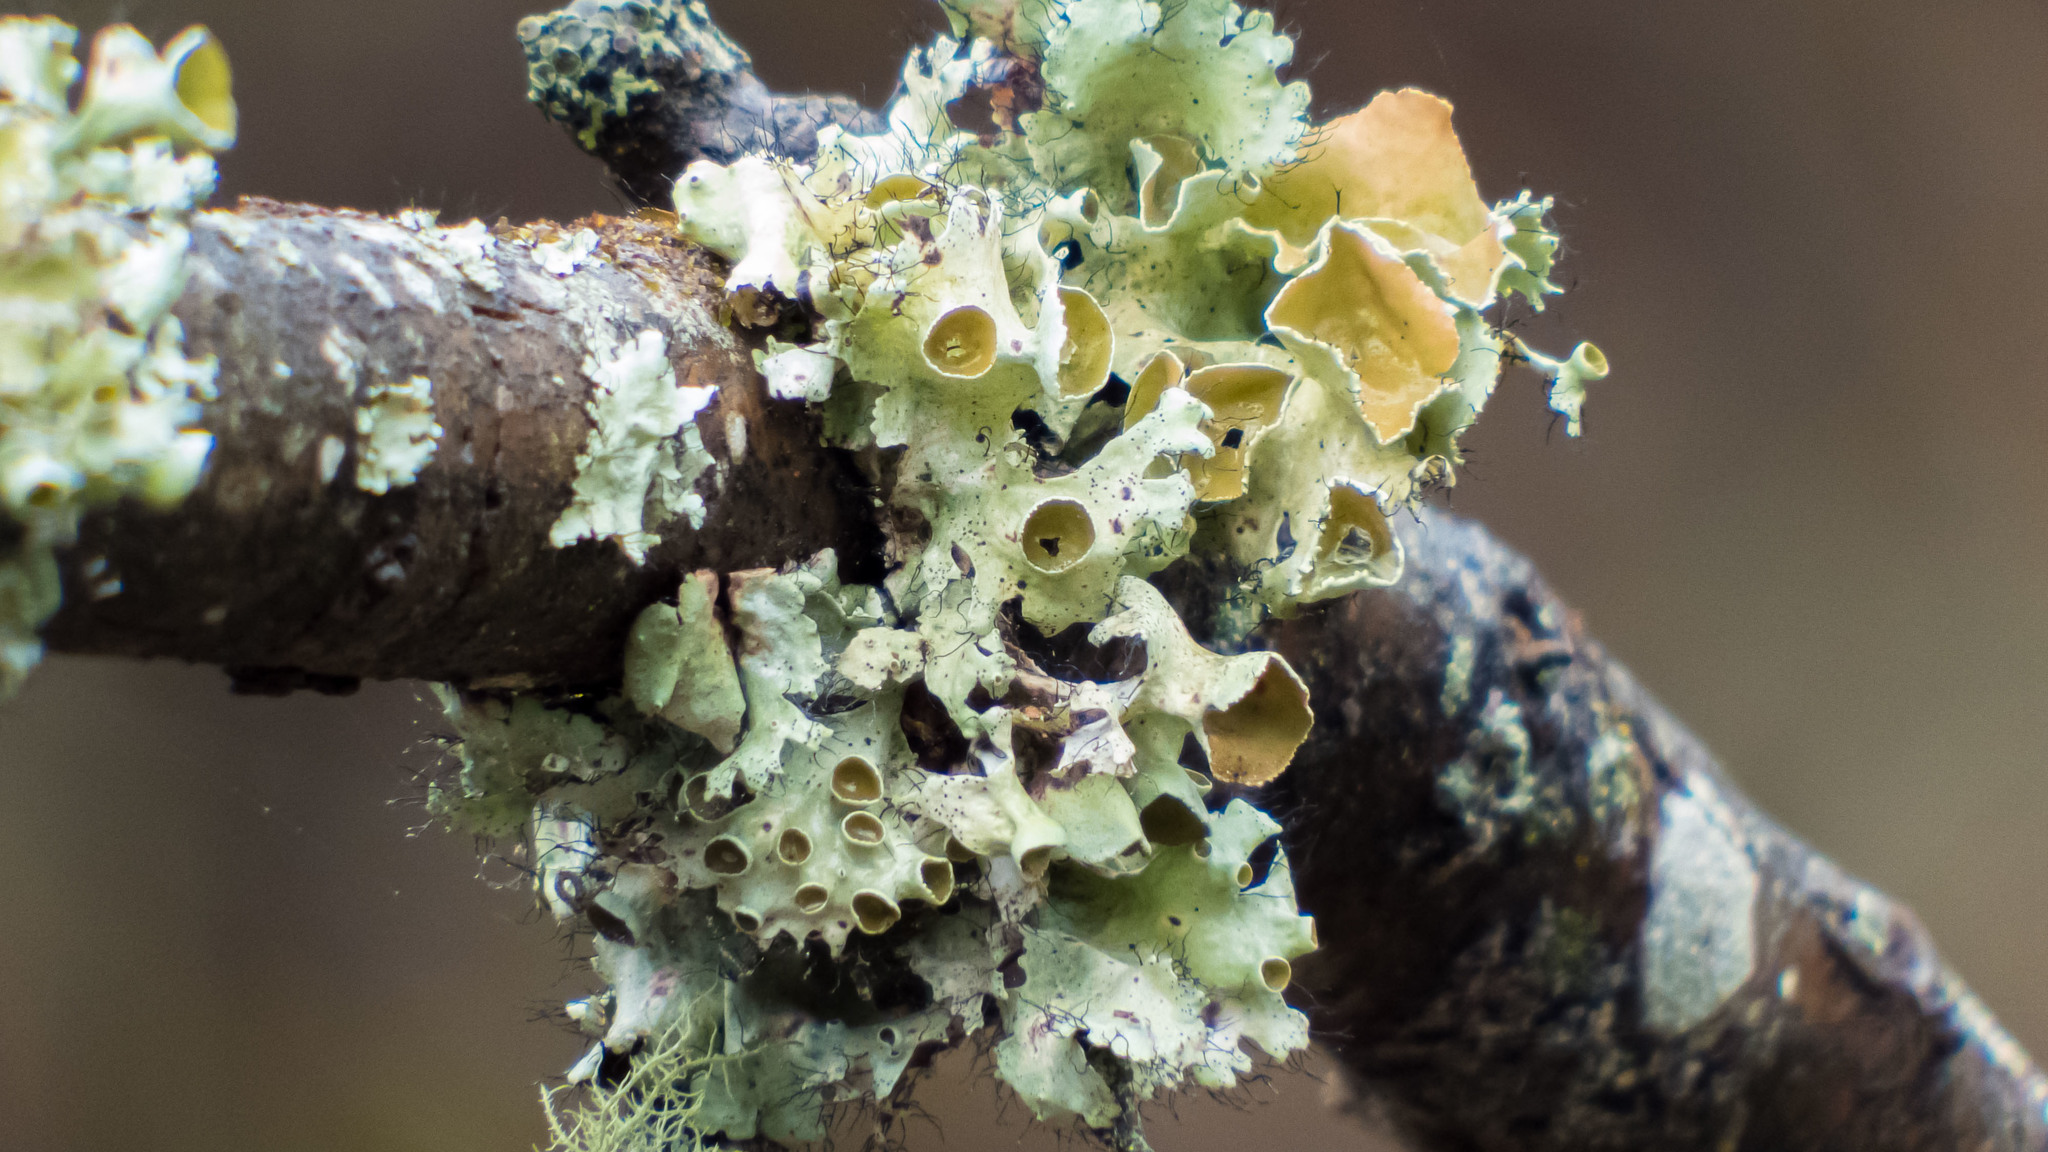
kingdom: Fungi
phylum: Ascomycota
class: Lecanoromycetes
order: Lecanorales
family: Parmeliaceae
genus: Parmotrema
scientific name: Parmotrema perforatum
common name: Perforated ruffle lichen
